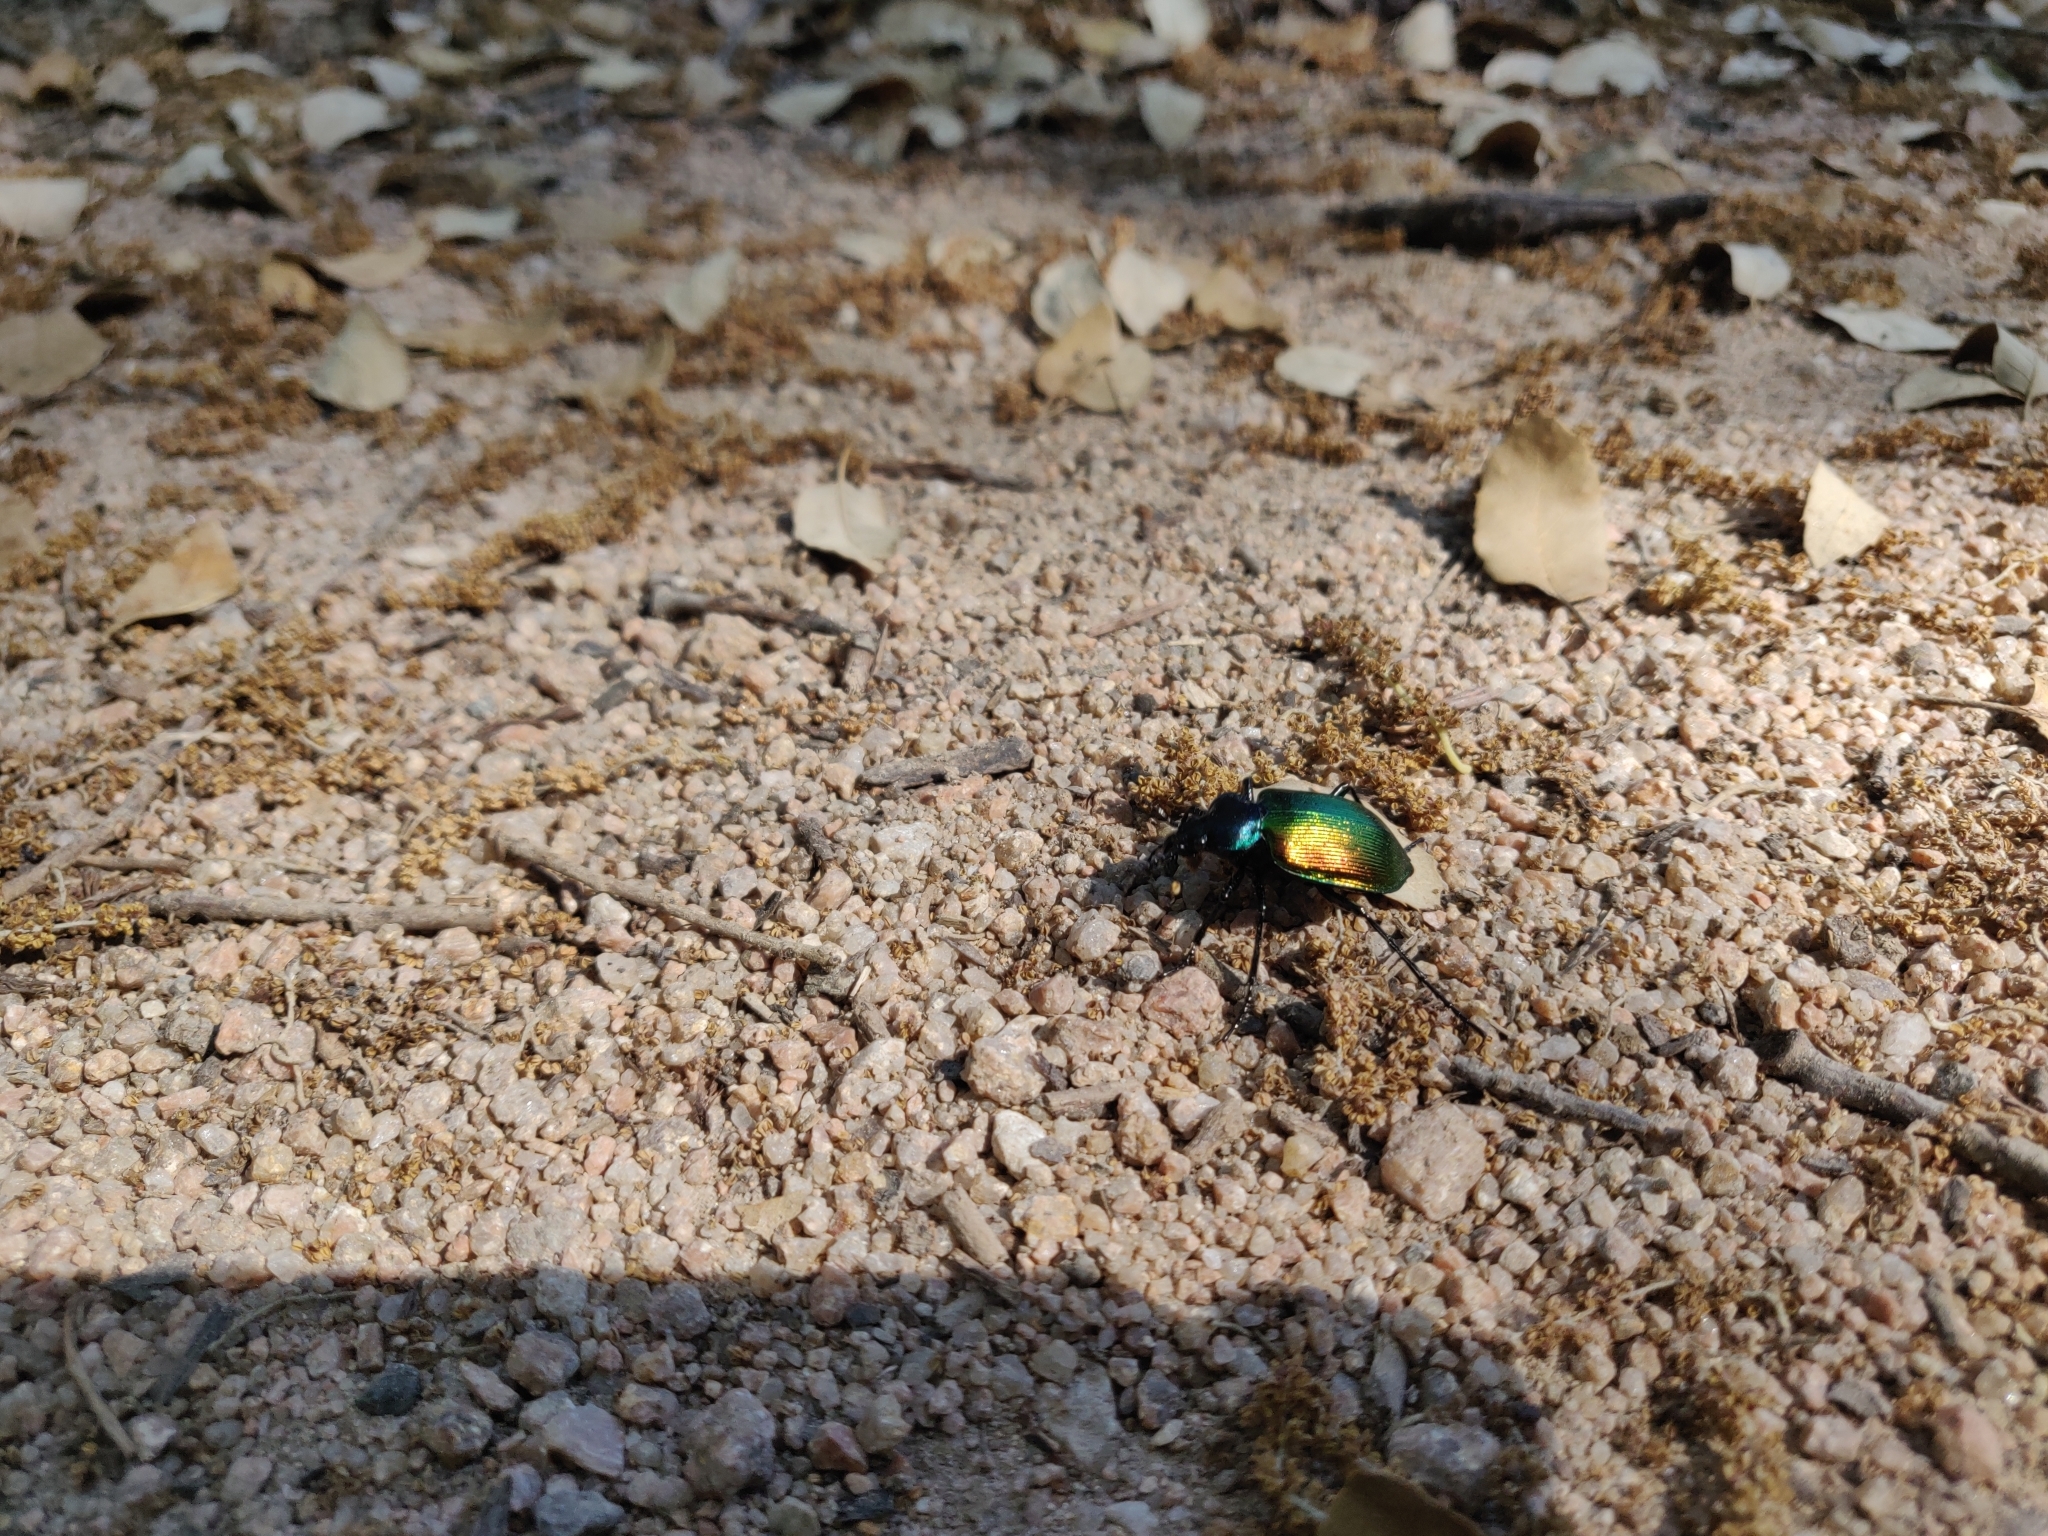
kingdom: Animalia
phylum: Arthropoda
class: Insecta
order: Coleoptera
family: Carabidae
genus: Calosoma
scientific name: Calosoma sycophanta
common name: Forest caterpillar hunter
